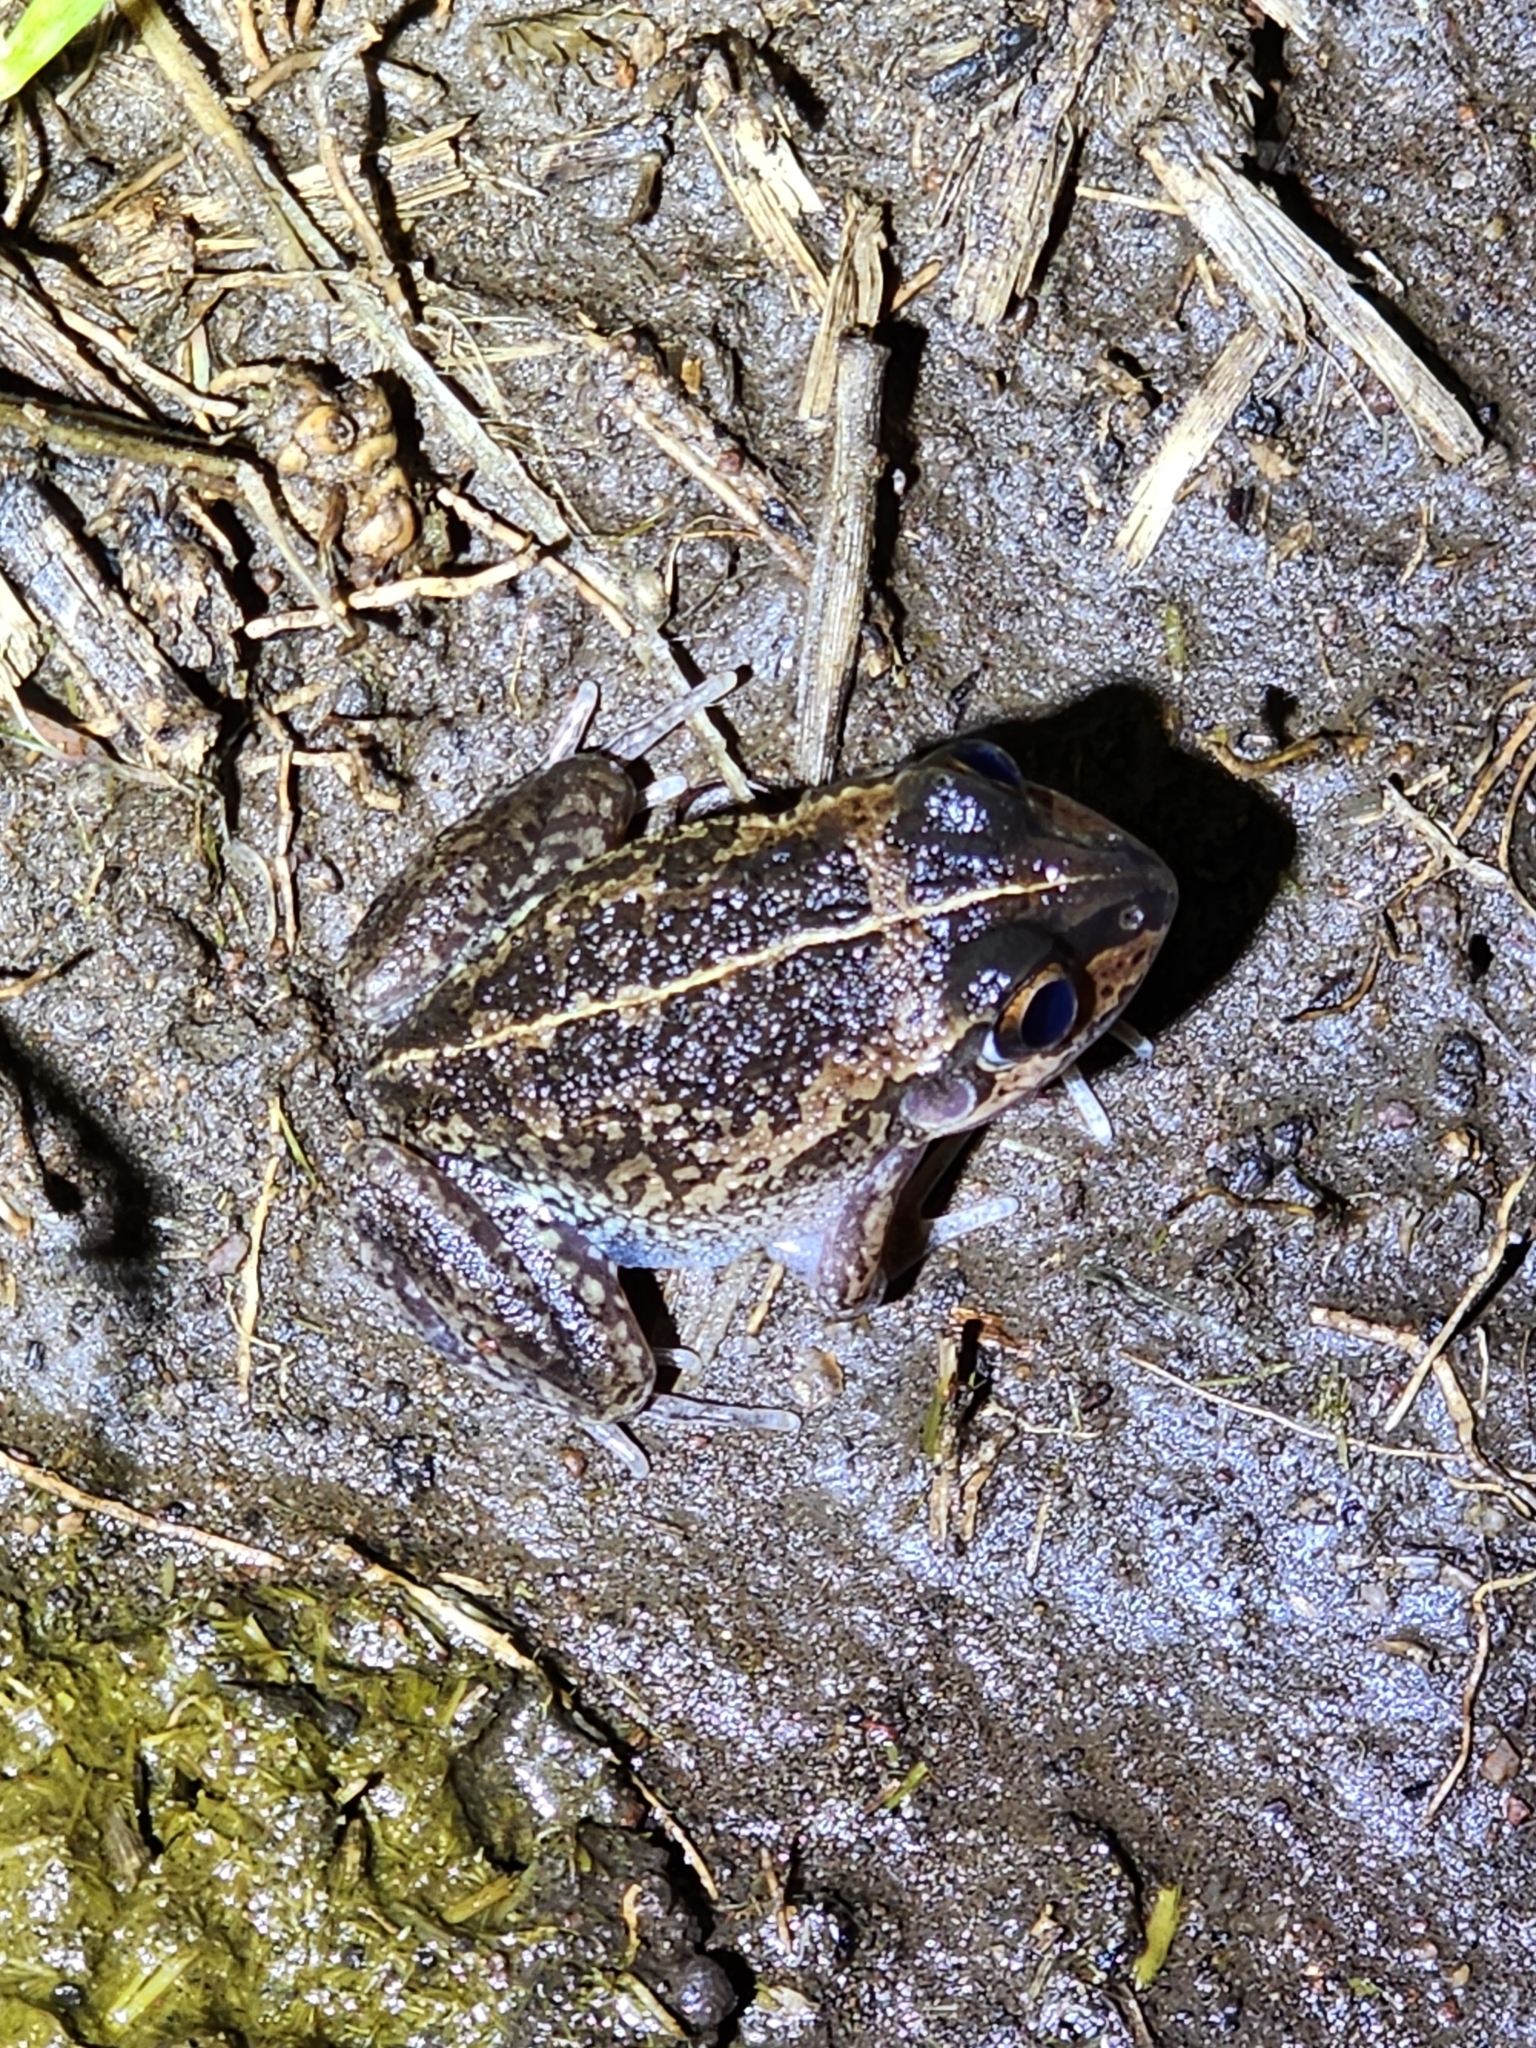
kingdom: Animalia
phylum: Chordata
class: Amphibia
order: Anura
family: Pelodryadidae
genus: Ranoidea
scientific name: Ranoidea brevipes
